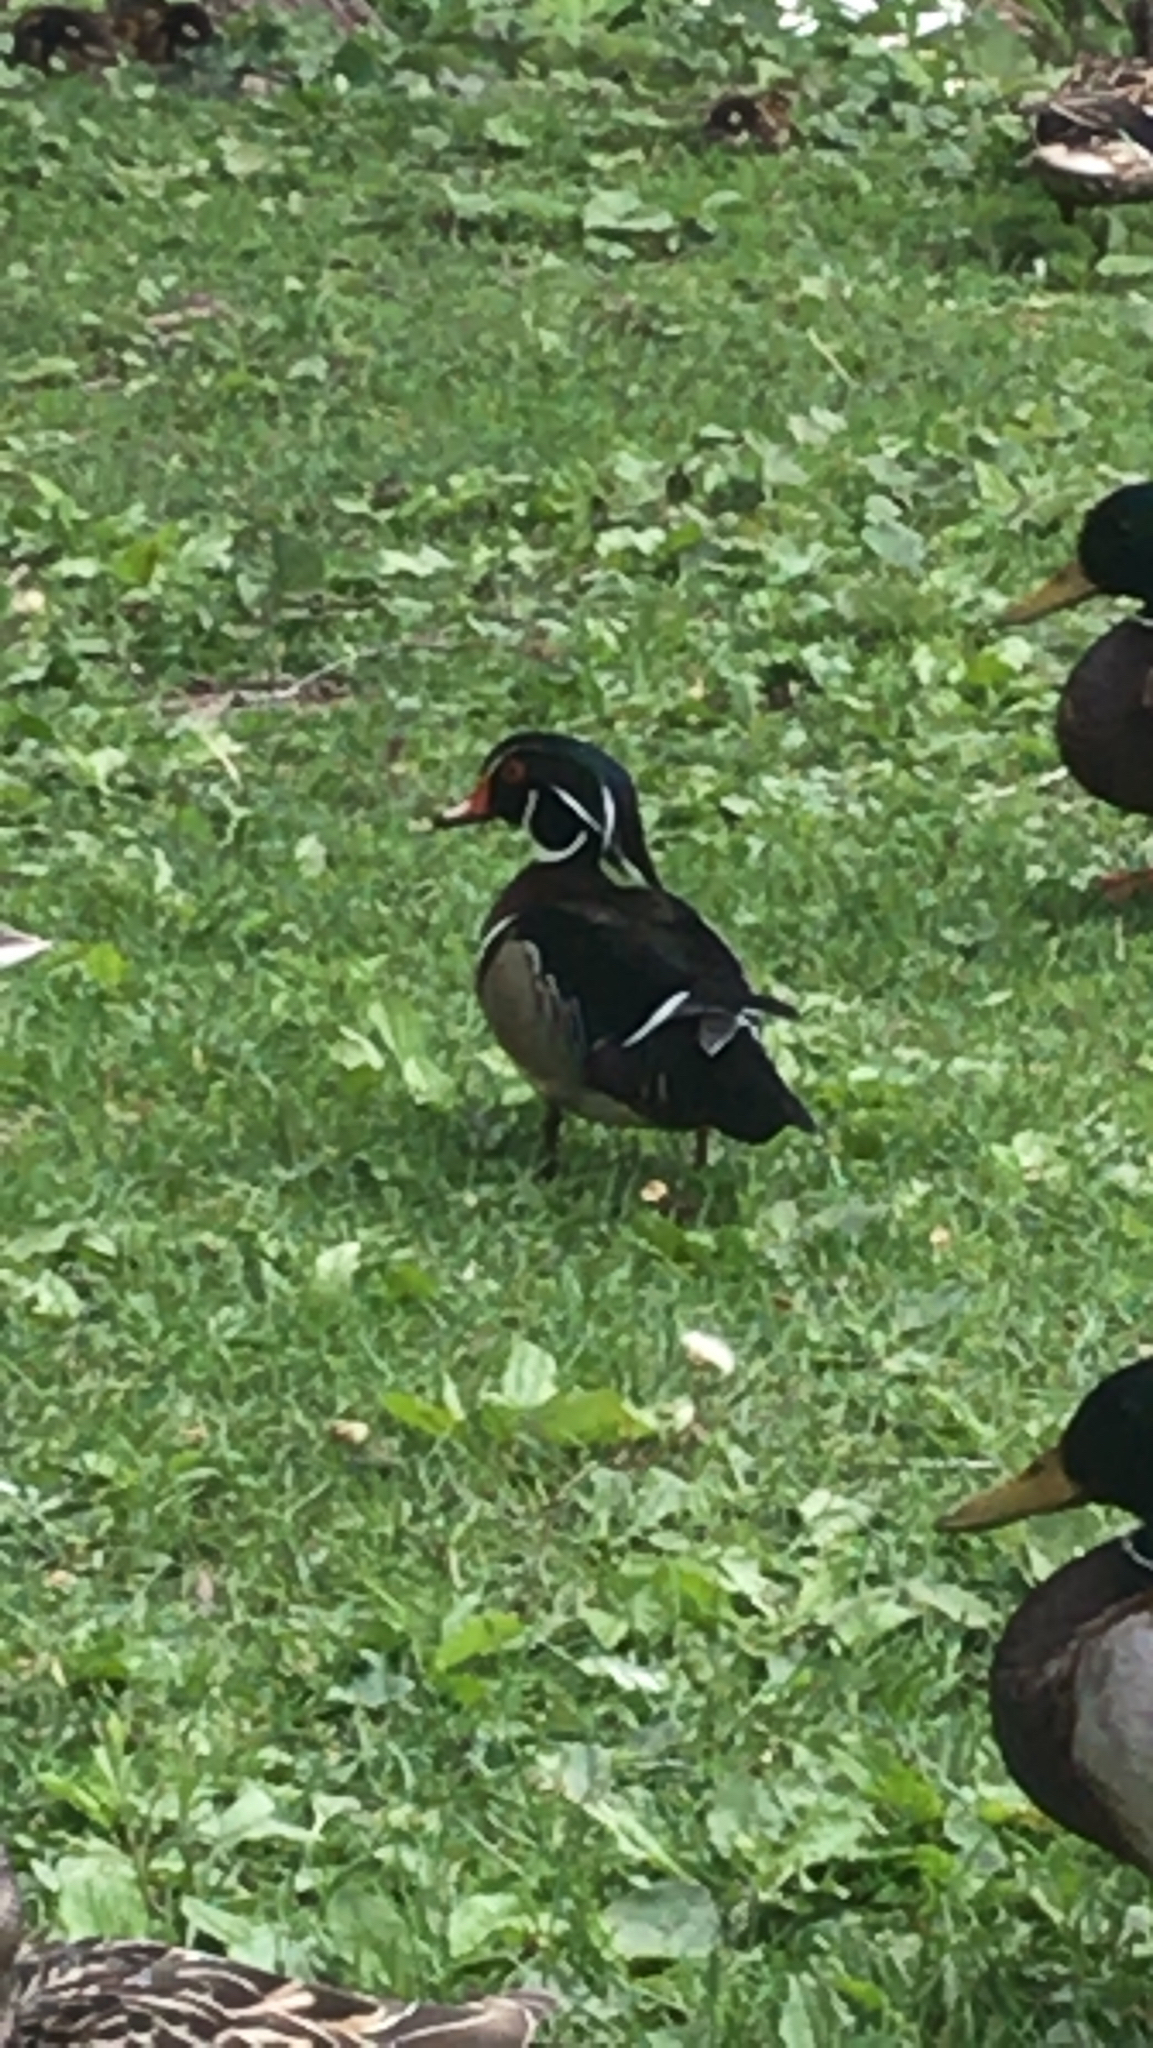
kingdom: Animalia
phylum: Chordata
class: Aves
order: Anseriformes
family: Anatidae
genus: Aix
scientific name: Aix sponsa
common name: Wood duck
